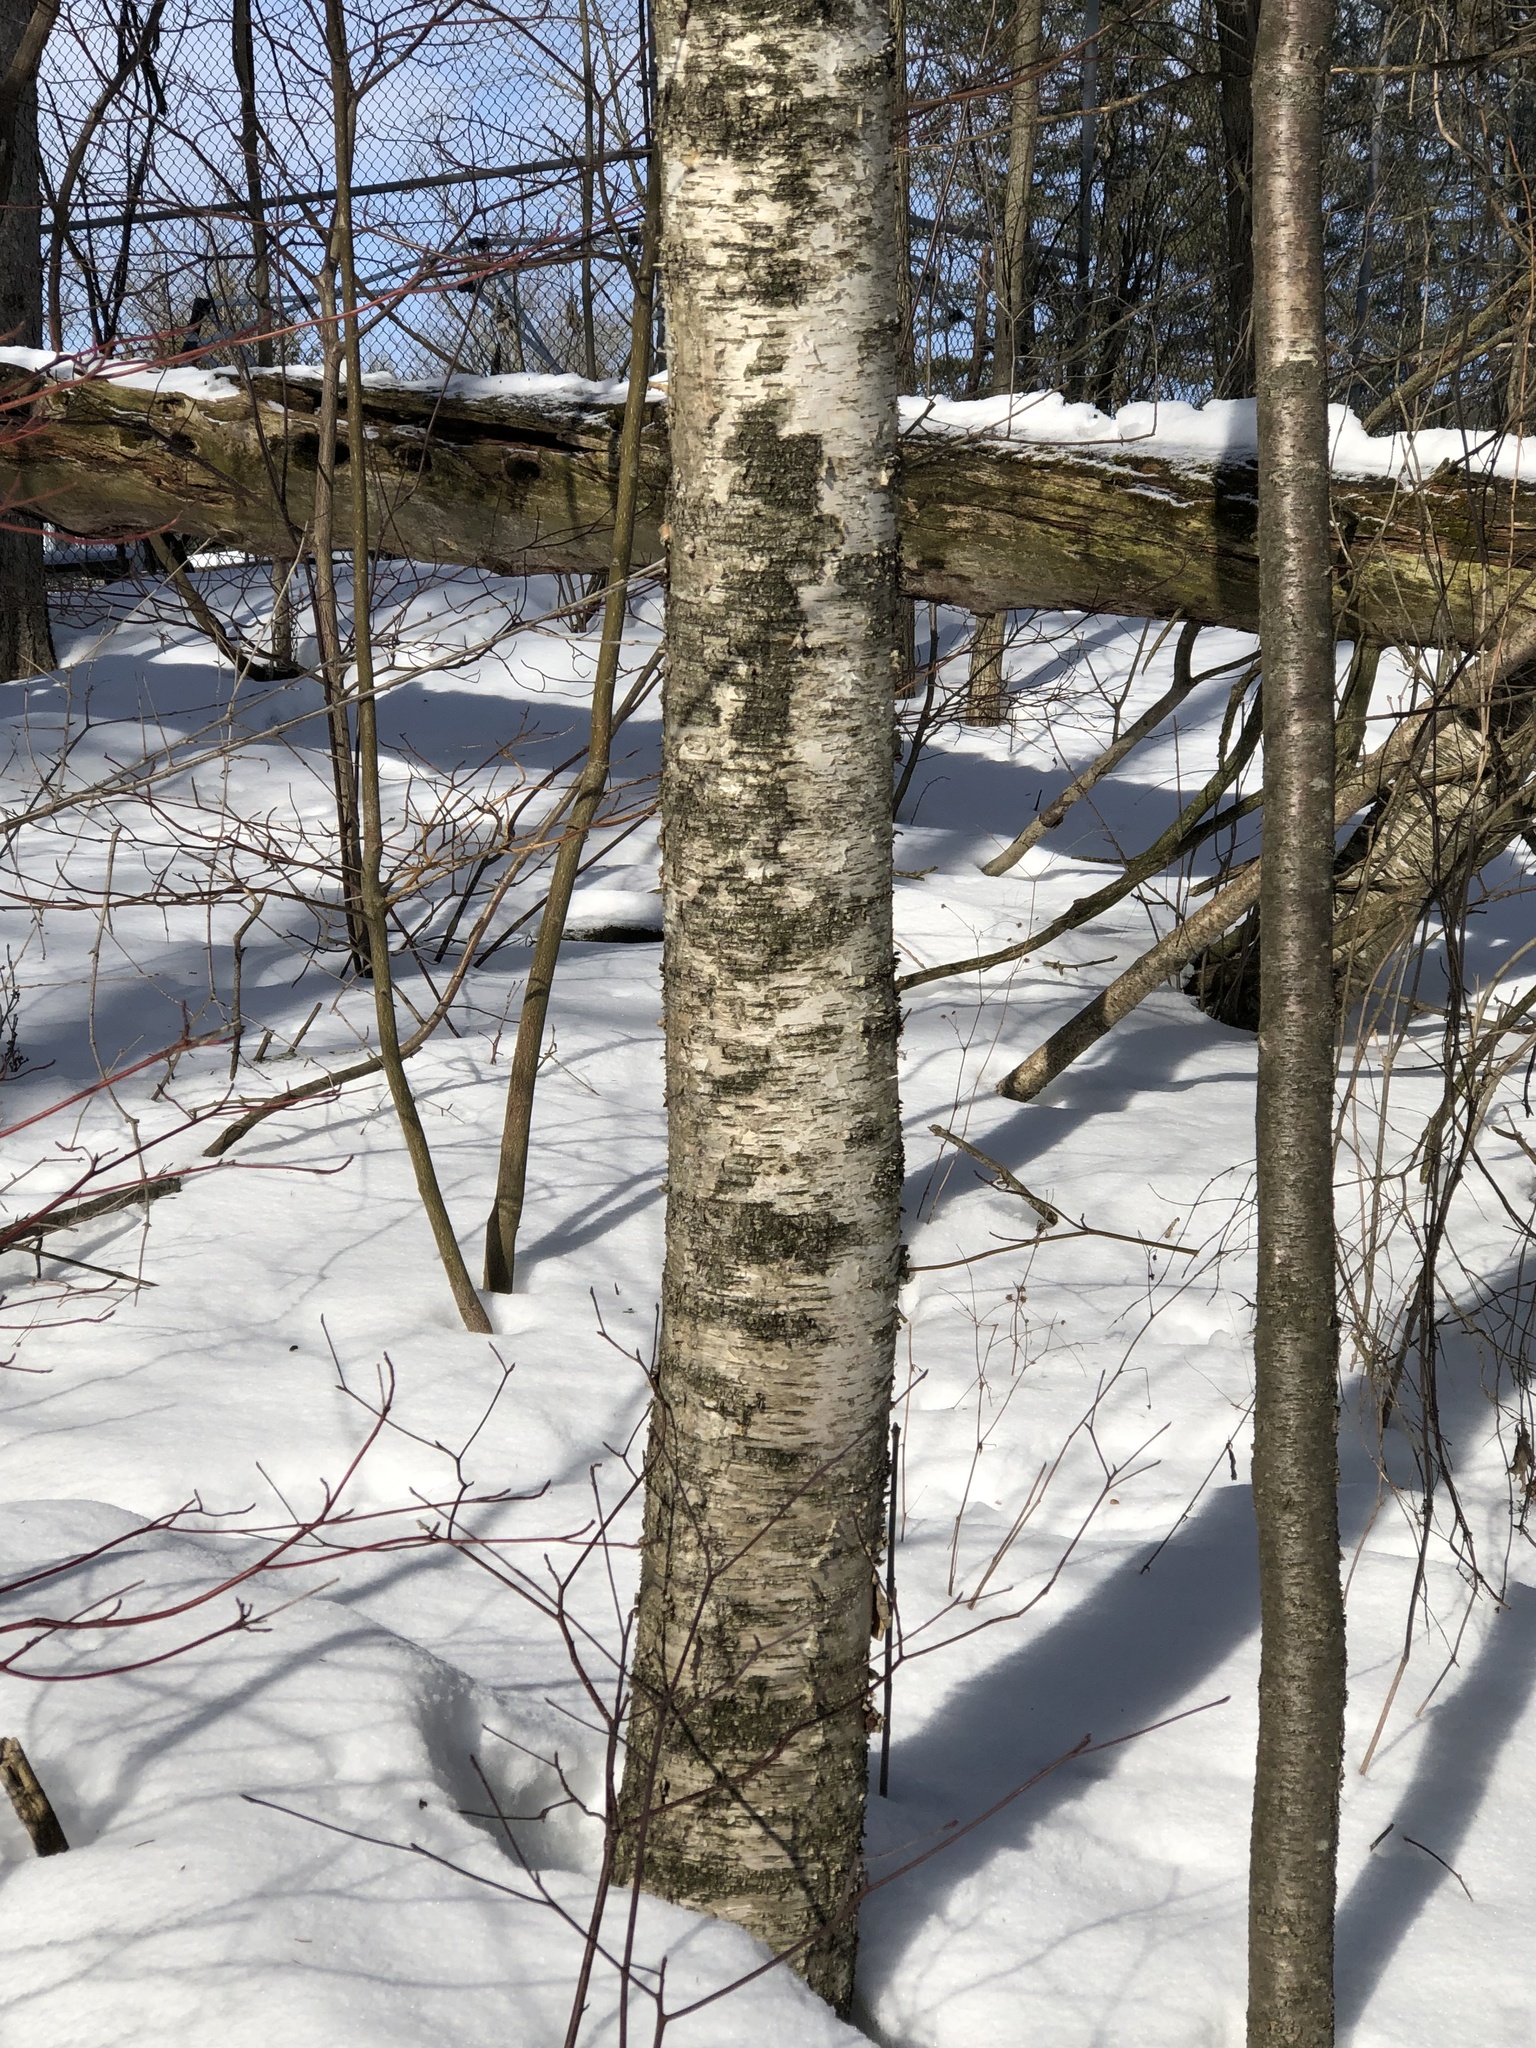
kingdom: Plantae
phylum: Tracheophyta
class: Magnoliopsida
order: Fagales
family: Betulaceae
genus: Betula
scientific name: Betula papyrifera
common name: Paper birch
